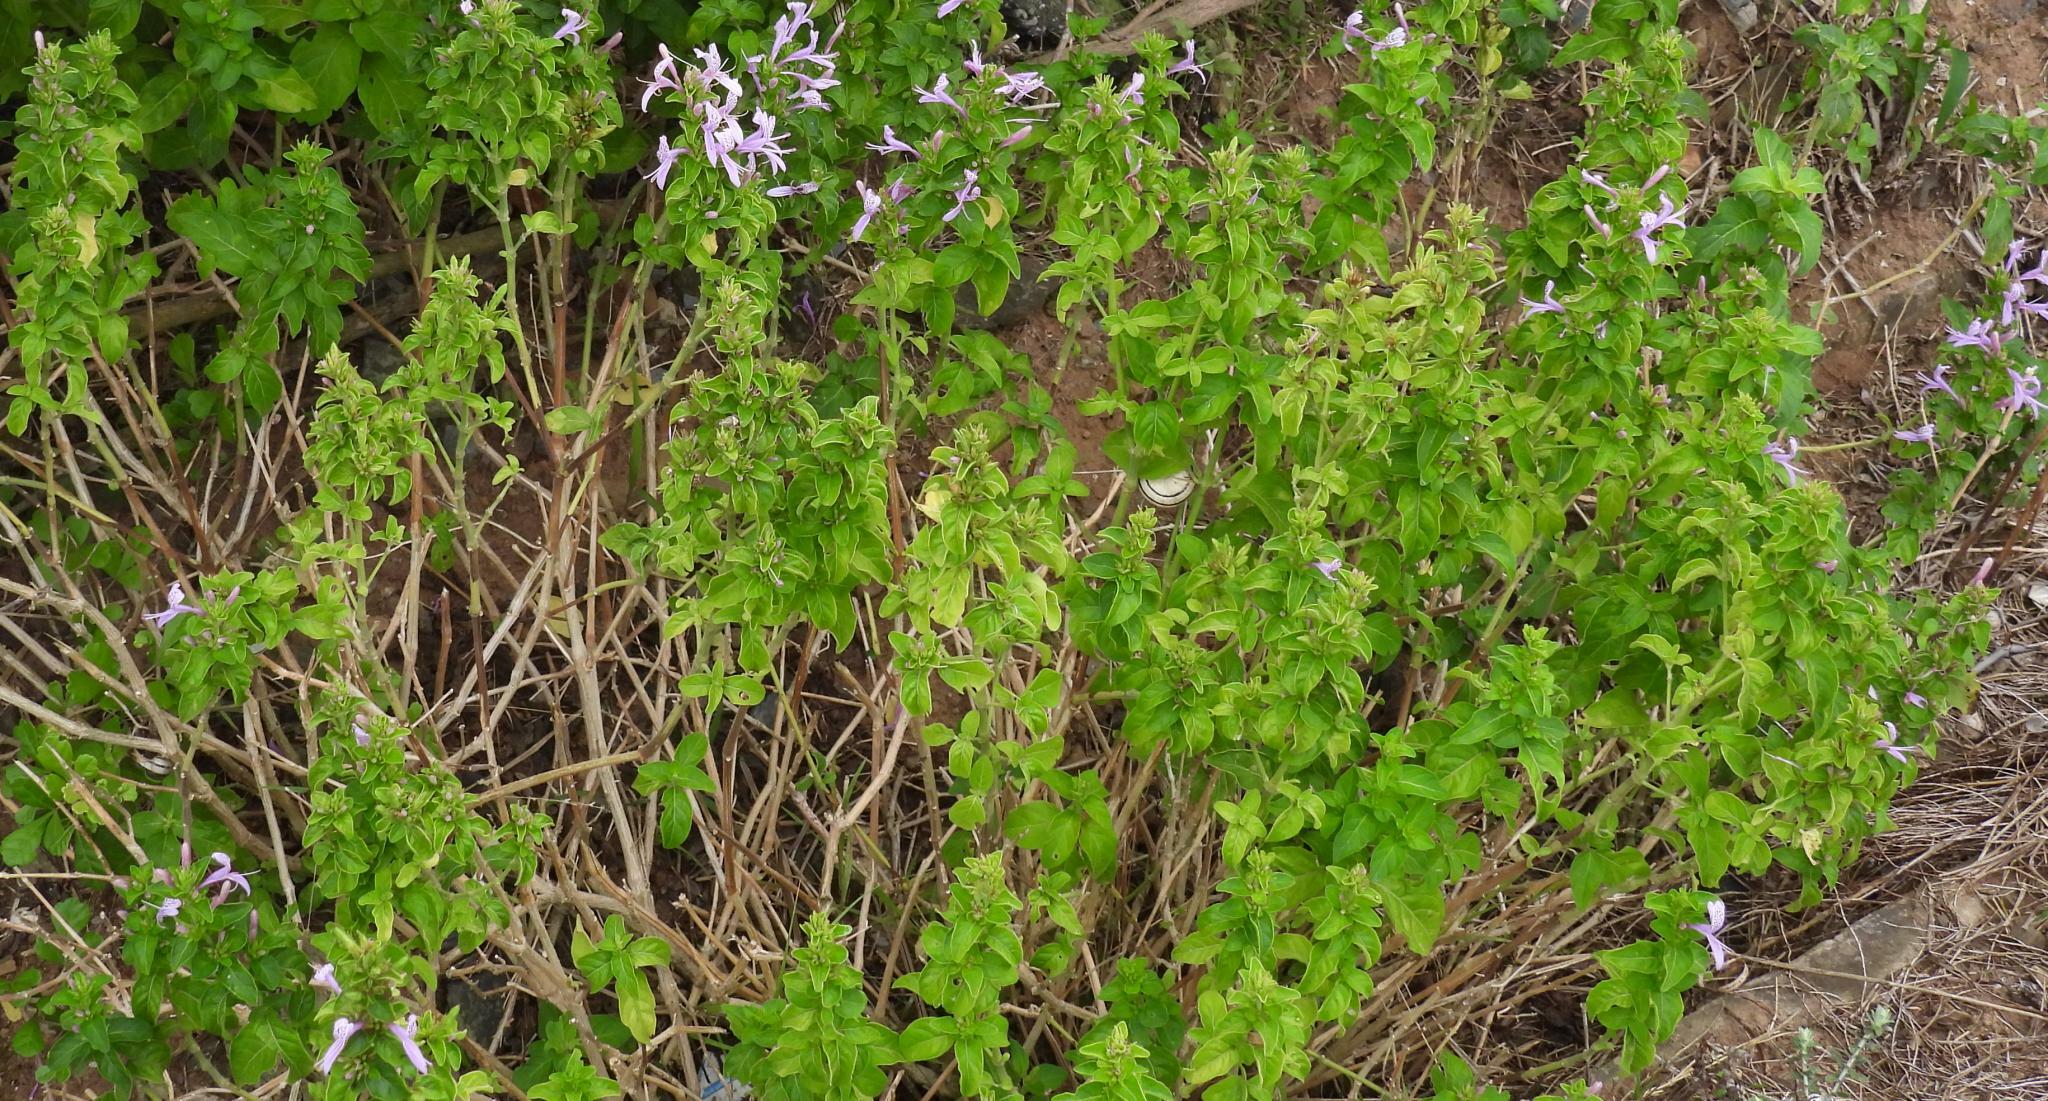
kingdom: Plantae
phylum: Tracheophyta
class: Magnoliopsida
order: Lamiales
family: Acanthaceae
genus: Hypoestes
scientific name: Hypoestes aristata
